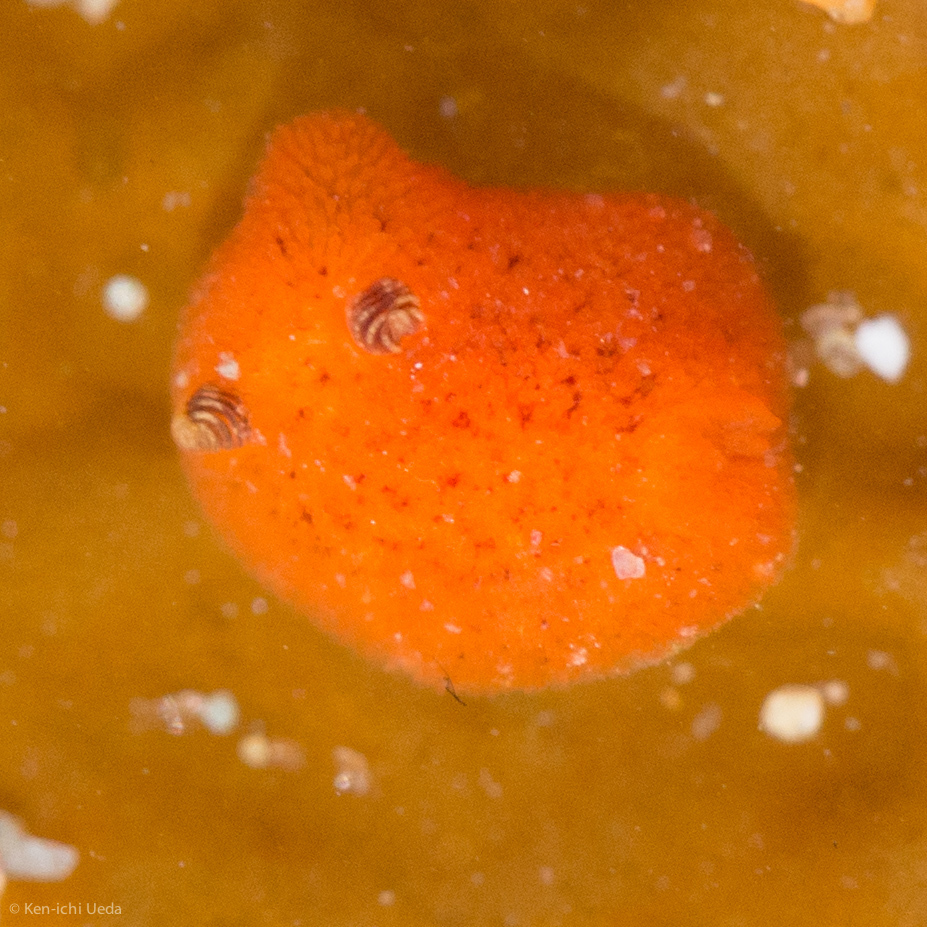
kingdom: Animalia
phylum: Mollusca
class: Gastropoda
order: Nudibranchia
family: Discodorididae
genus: Rostanga
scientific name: Rostanga arbutus
